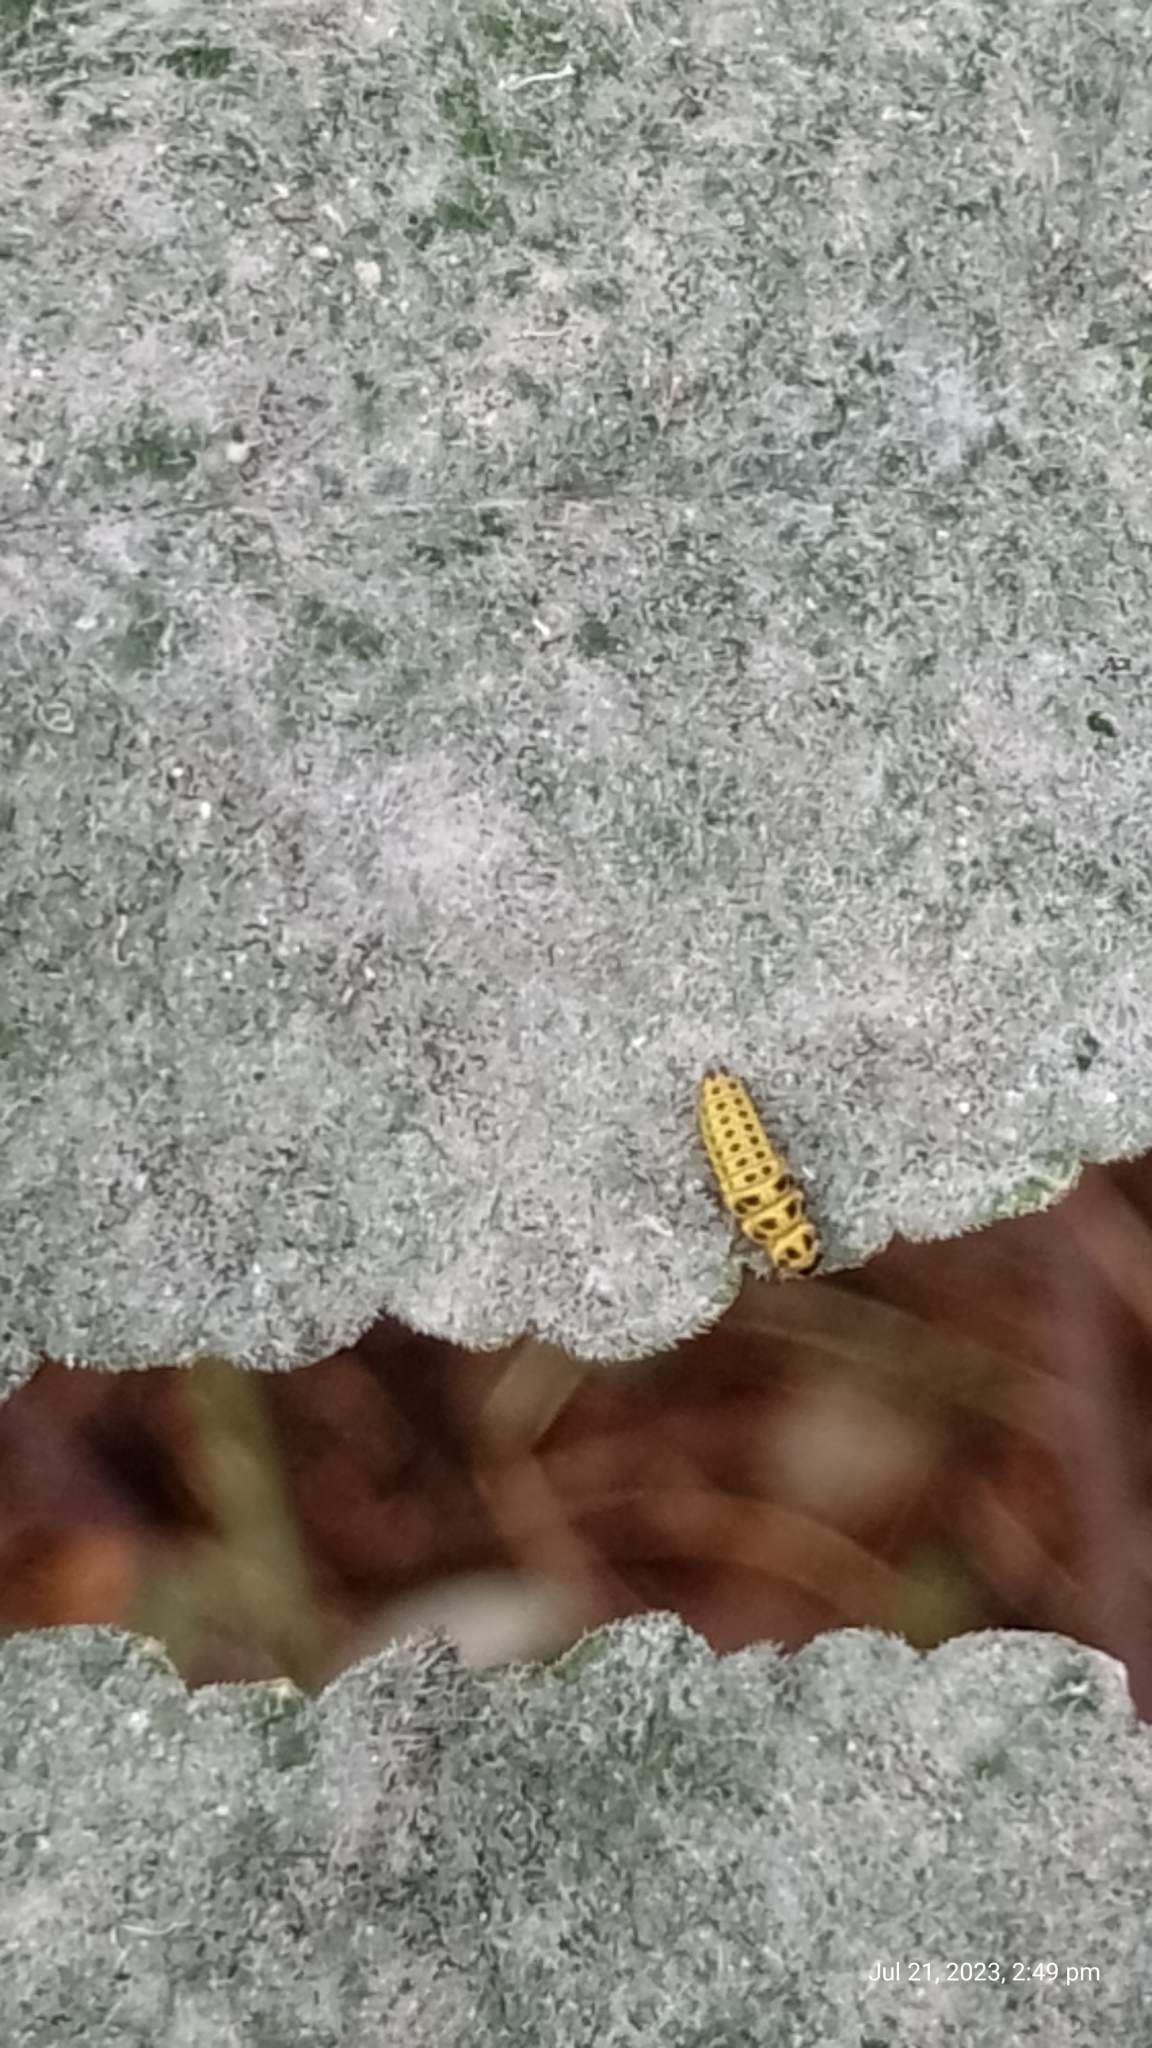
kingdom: Animalia
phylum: Arthropoda
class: Insecta
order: Coleoptera
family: Coccinellidae
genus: Psyllobora
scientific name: Psyllobora vigintiduopunctata
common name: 22-spot ladybird
